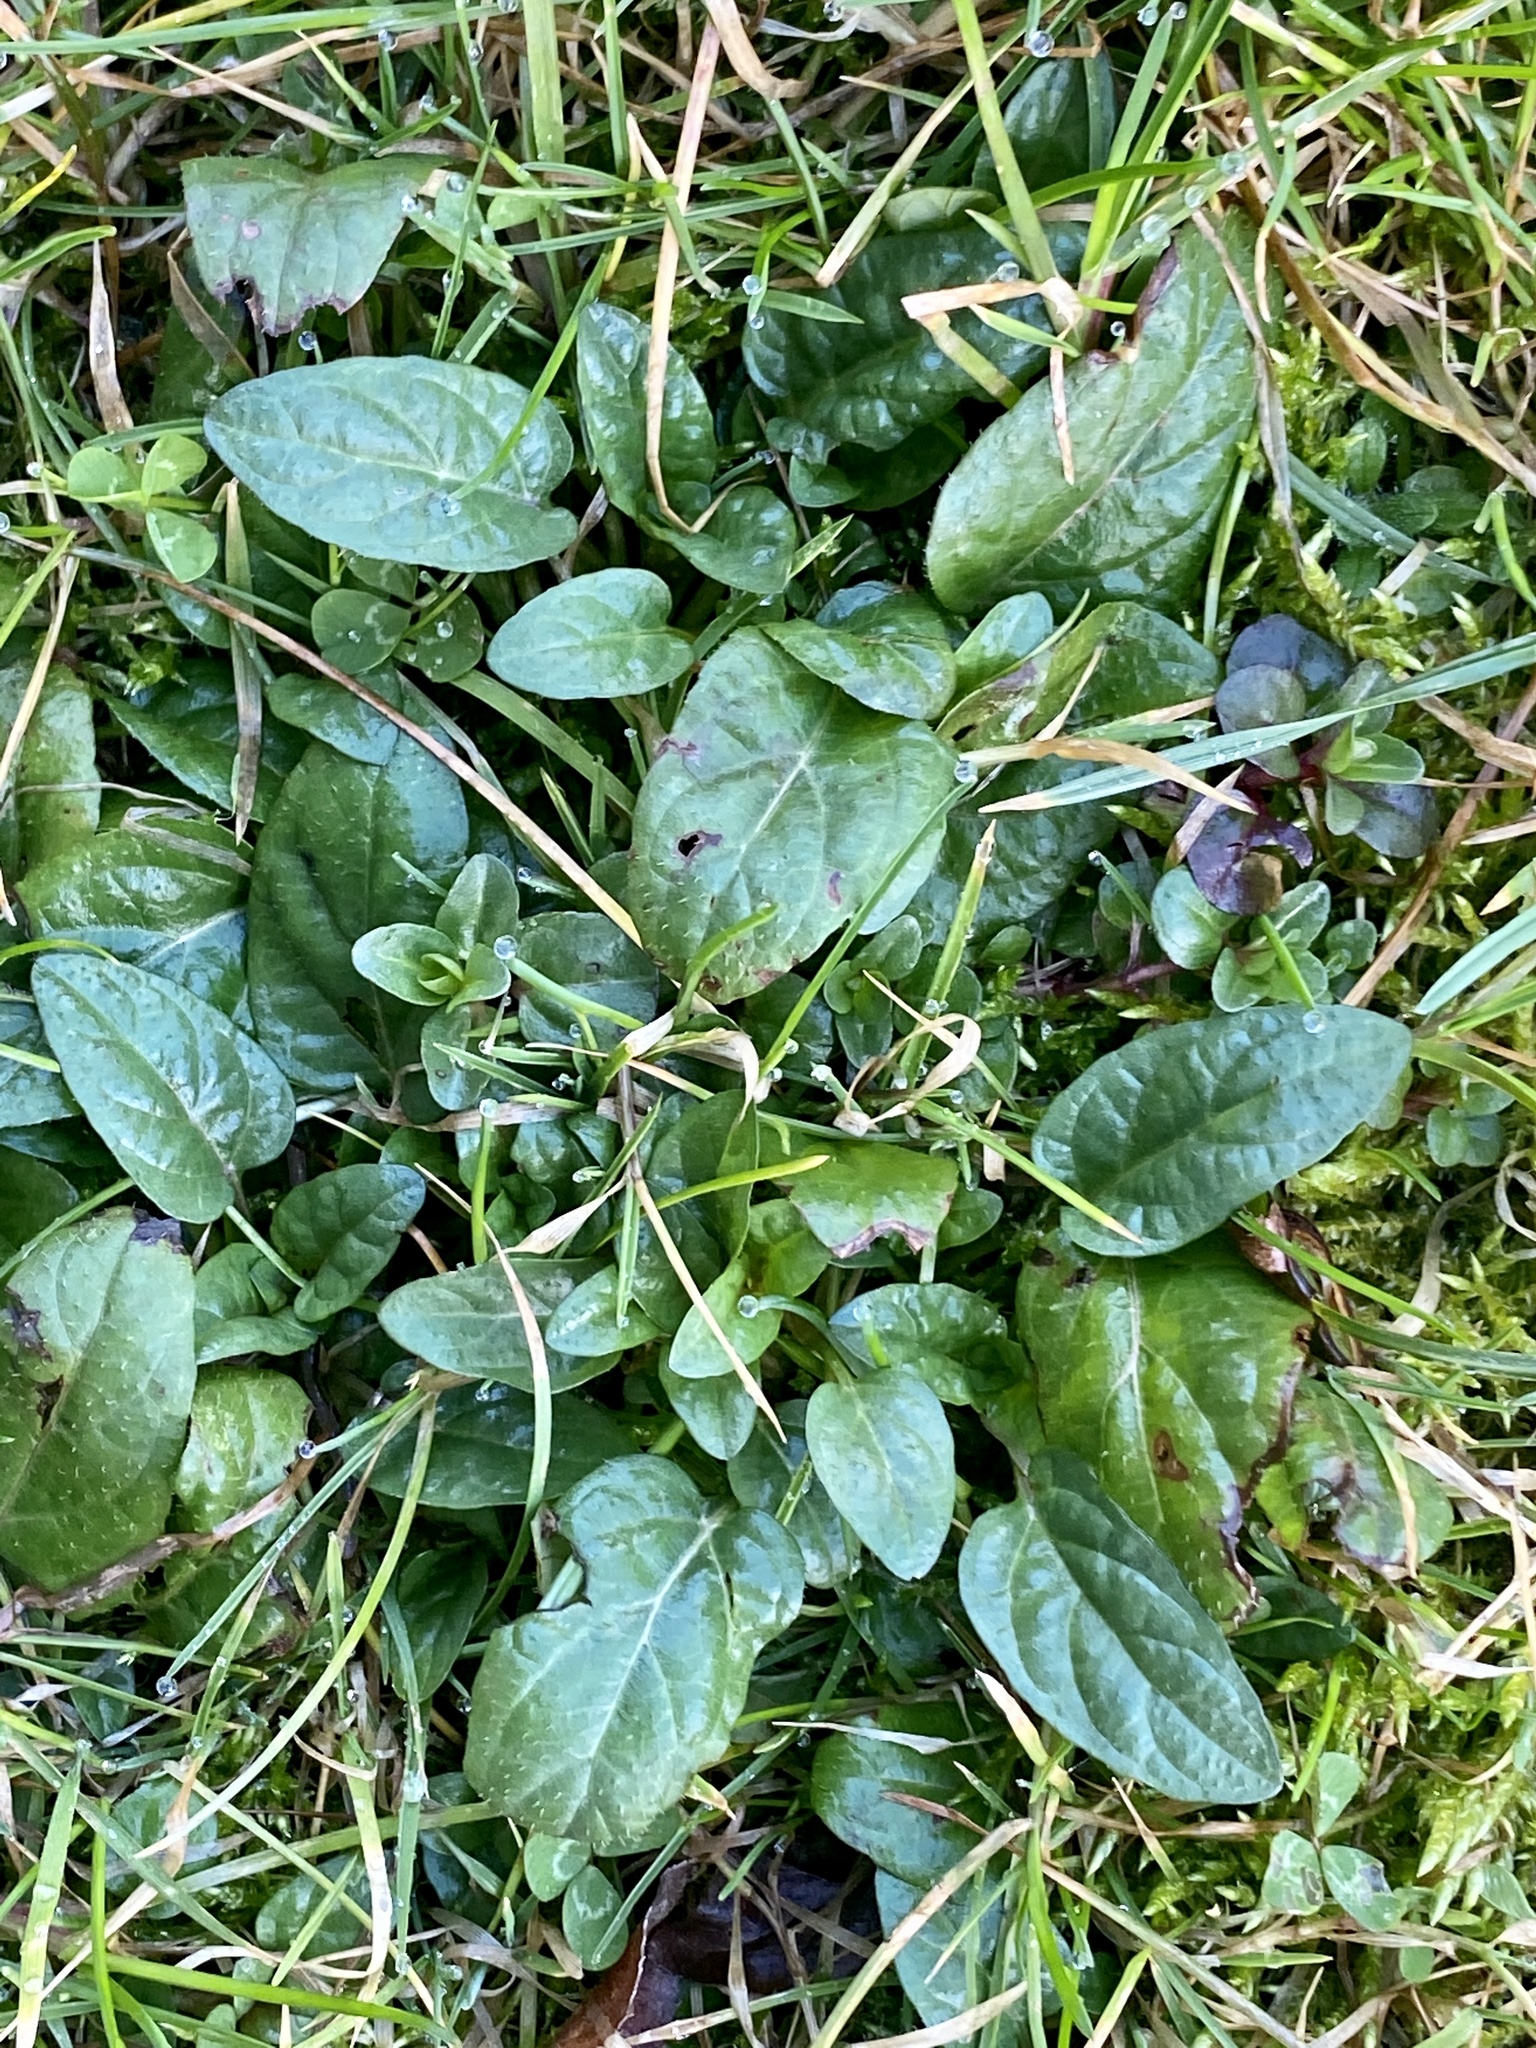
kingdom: Plantae
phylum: Tracheophyta
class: Magnoliopsida
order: Lamiales
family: Lamiaceae
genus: Prunella
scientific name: Prunella vulgaris
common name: Heal-all
